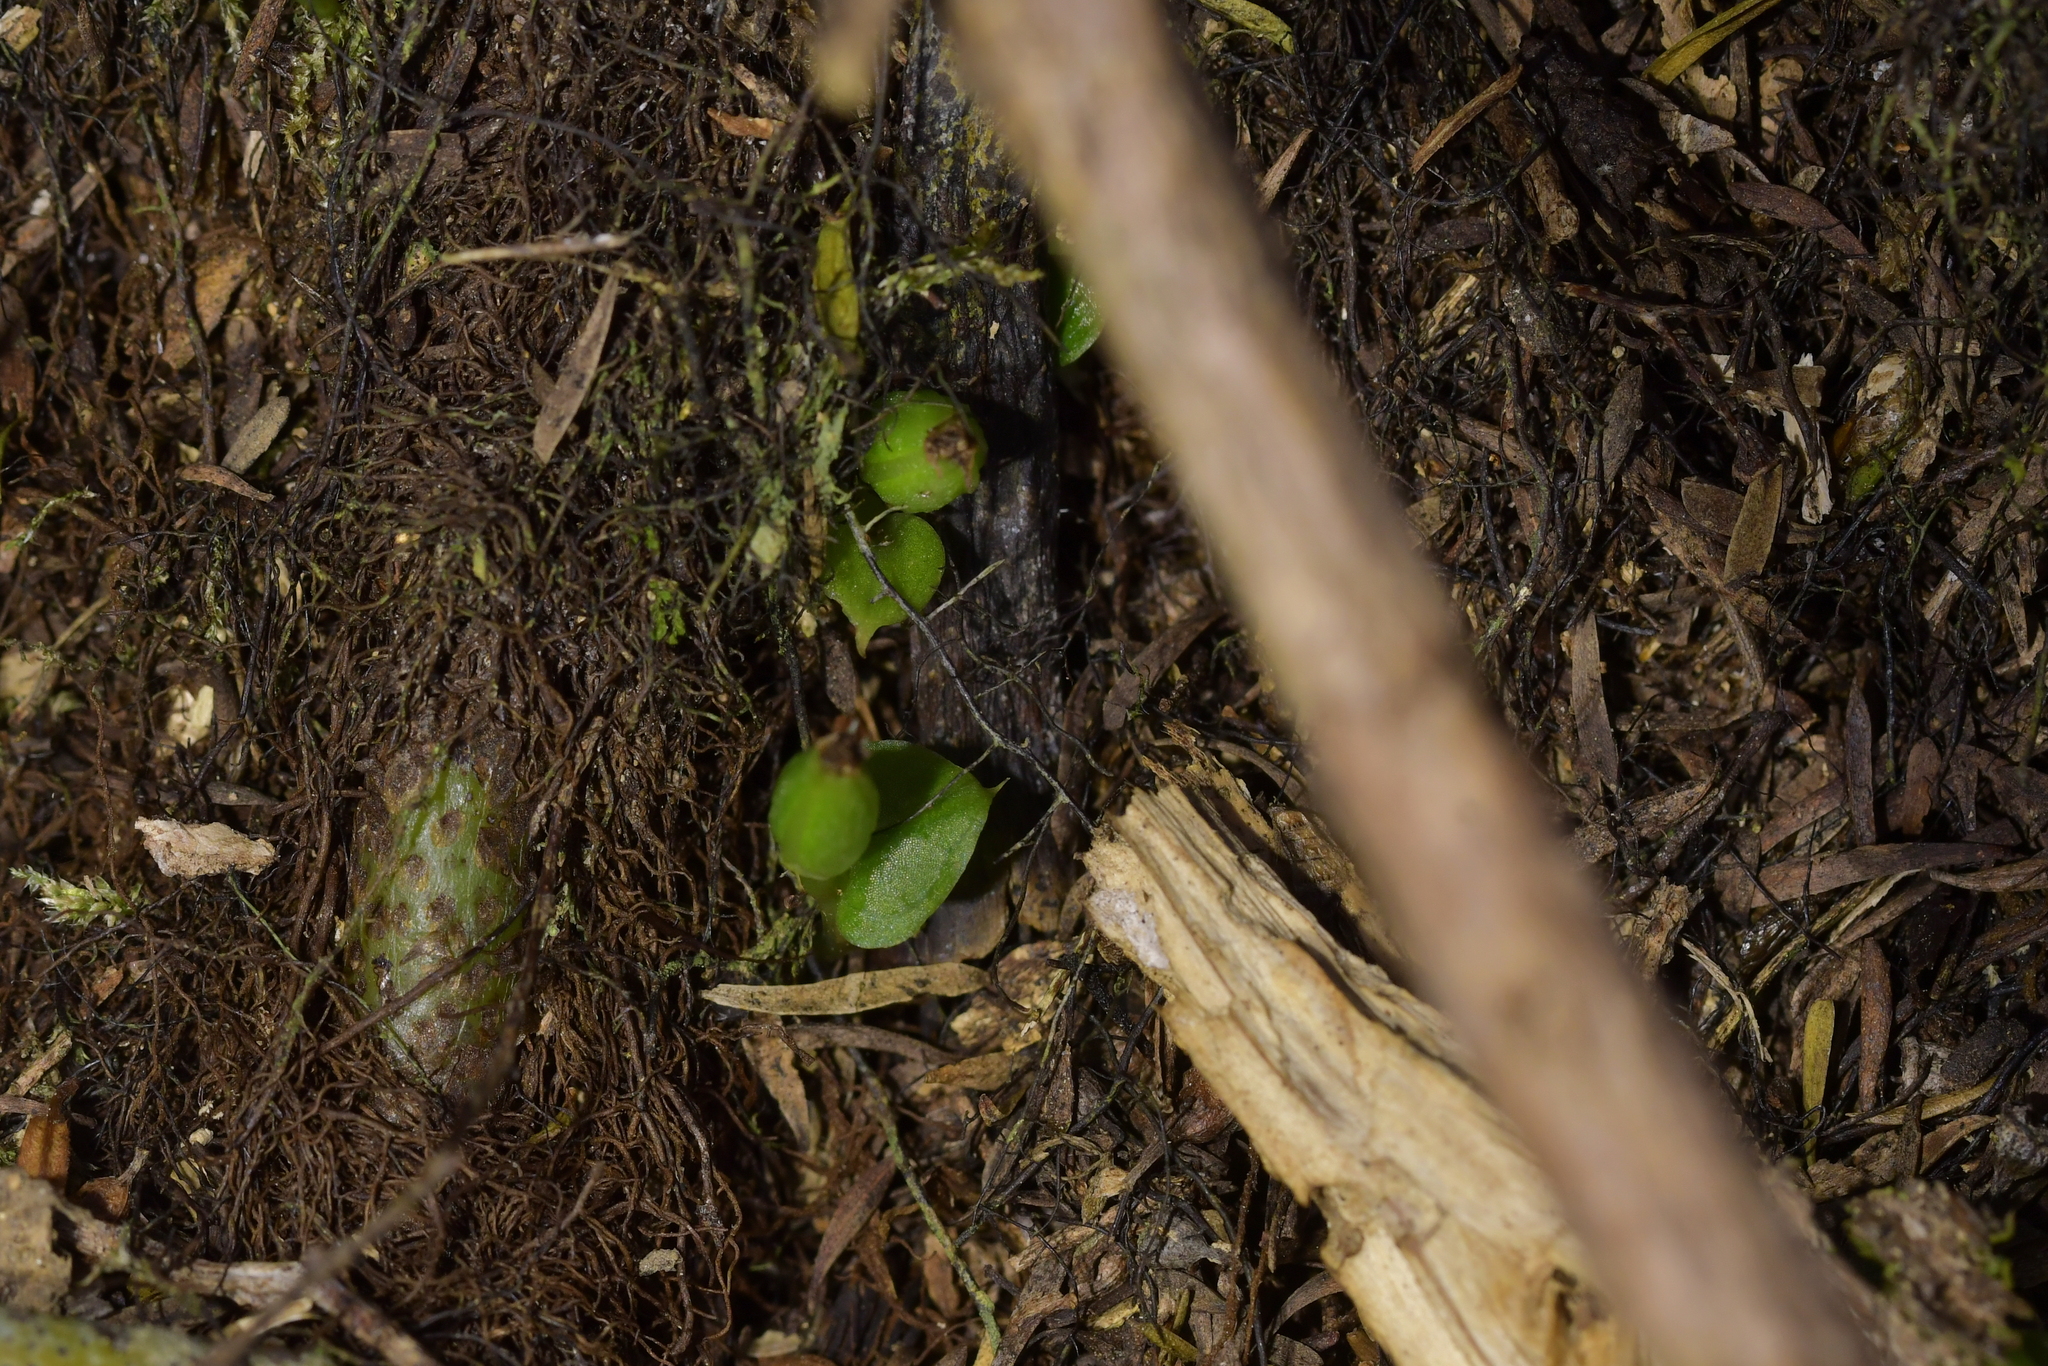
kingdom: Plantae
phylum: Tracheophyta
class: Liliopsida
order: Asparagales
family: Orchidaceae
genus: Corybas
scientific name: Corybas cheesemanii
